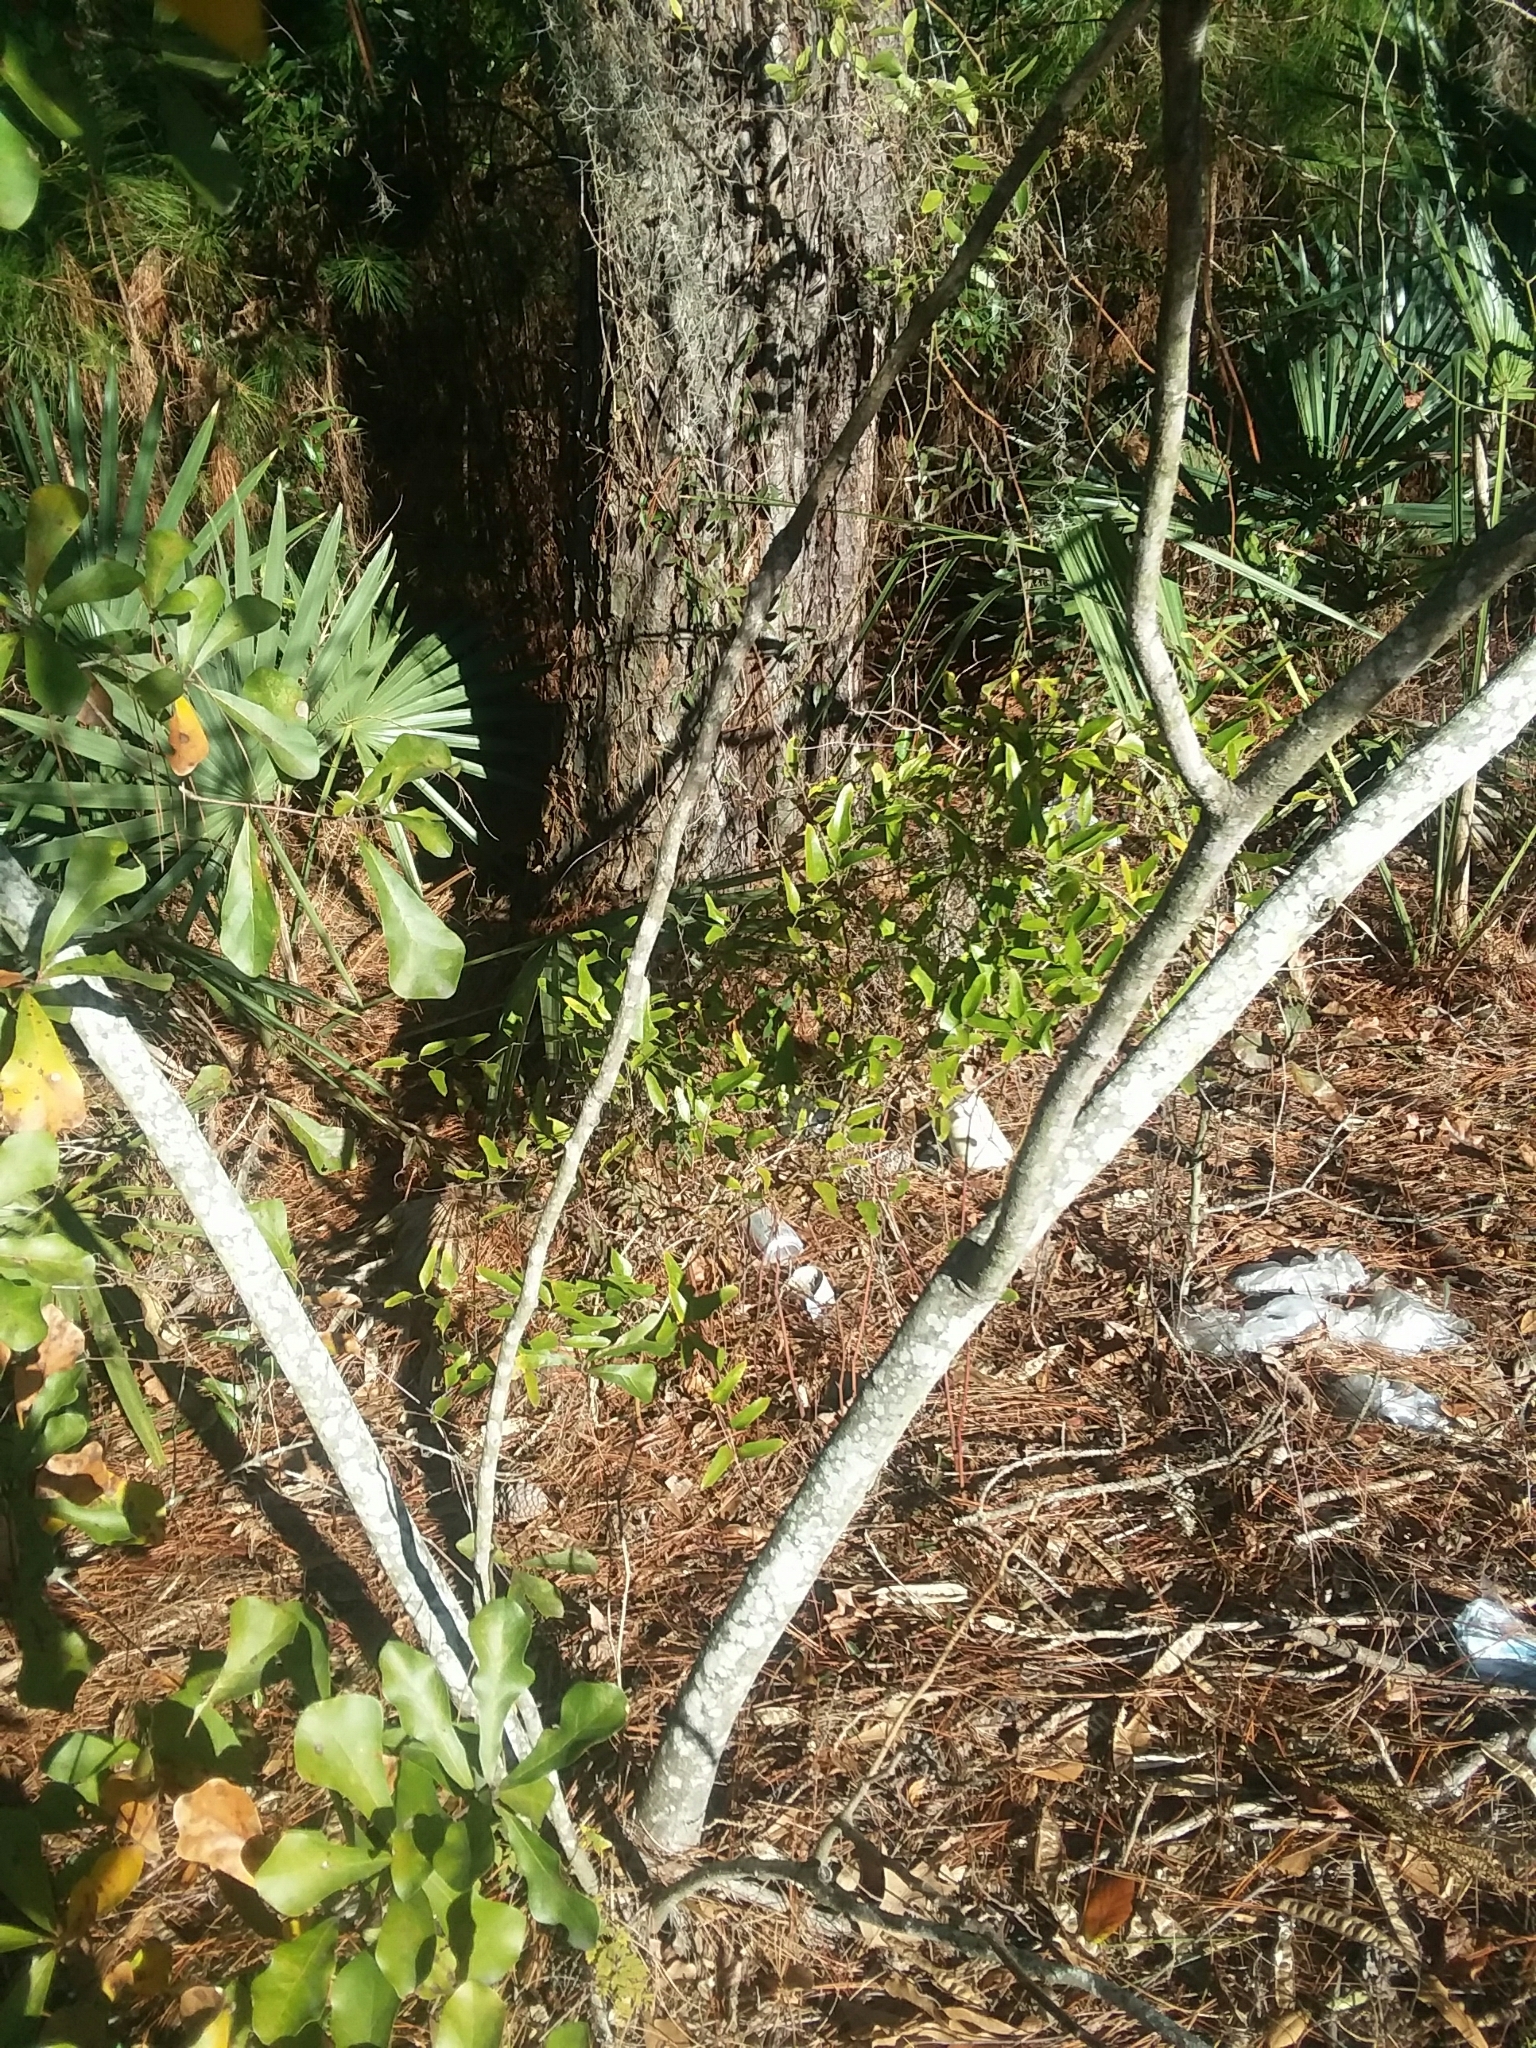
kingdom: Plantae
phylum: Tracheophyta
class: Magnoliopsida
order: Fabales
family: Fabaceae
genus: Albizia
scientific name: Albizia julibrissin
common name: Silktree
